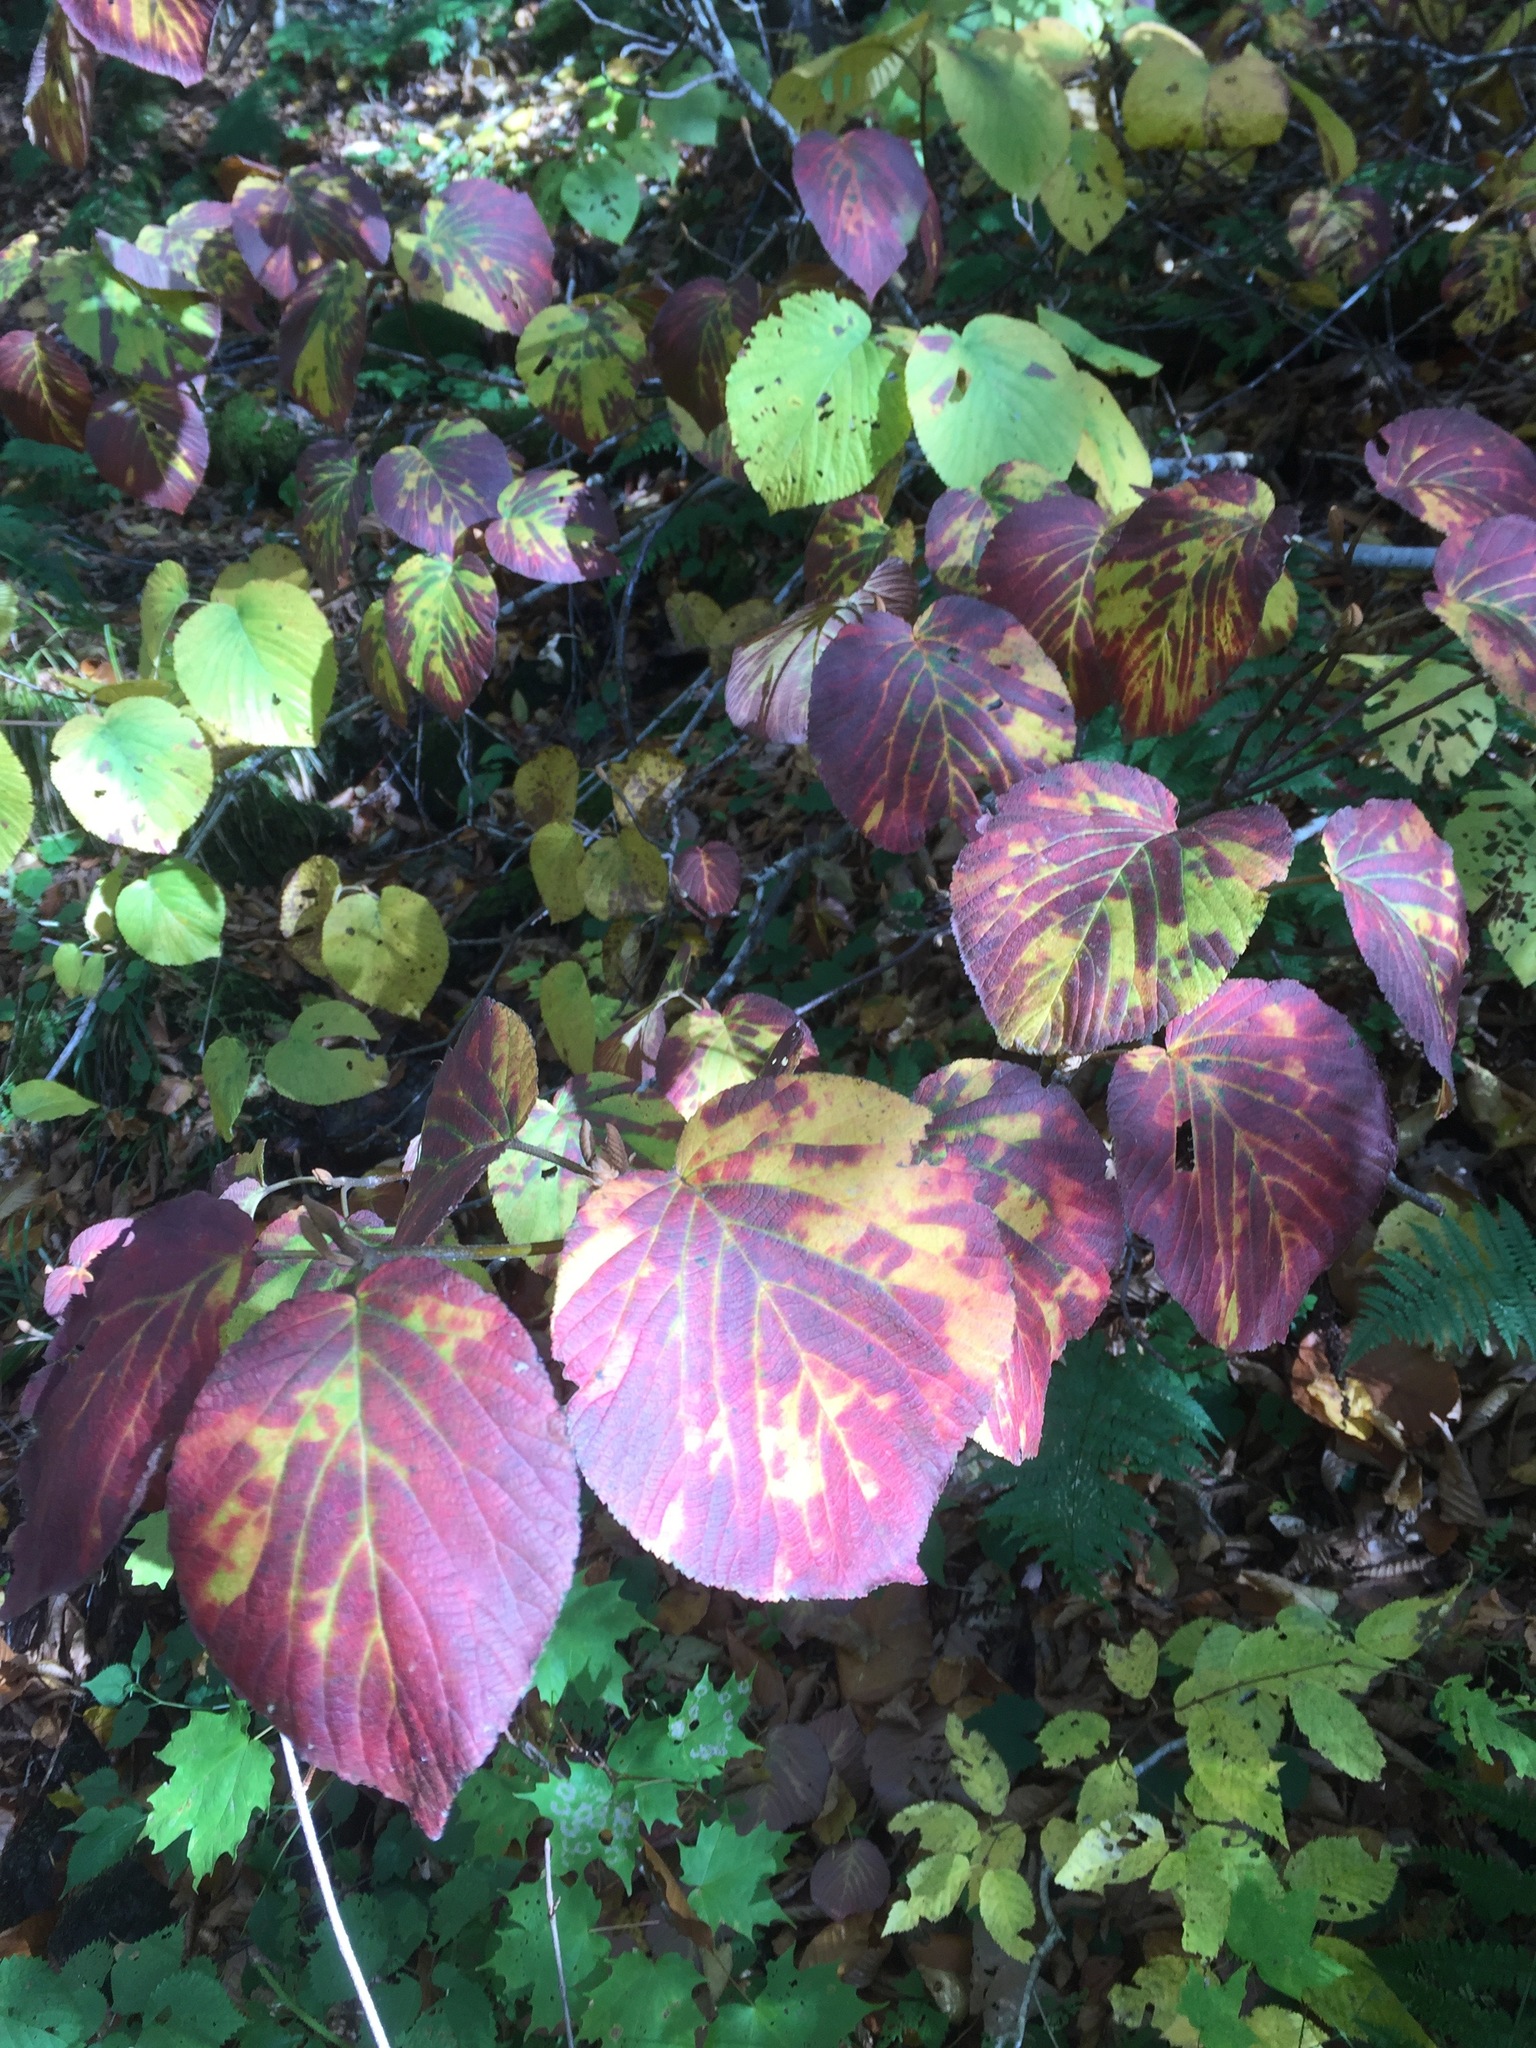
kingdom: Plantae
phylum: Tracheophyta
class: Magnoliopsida
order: Dipsacales
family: Viburnaceae
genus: Viburnum
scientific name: Viburnum lantanoides
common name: Hobblebush
